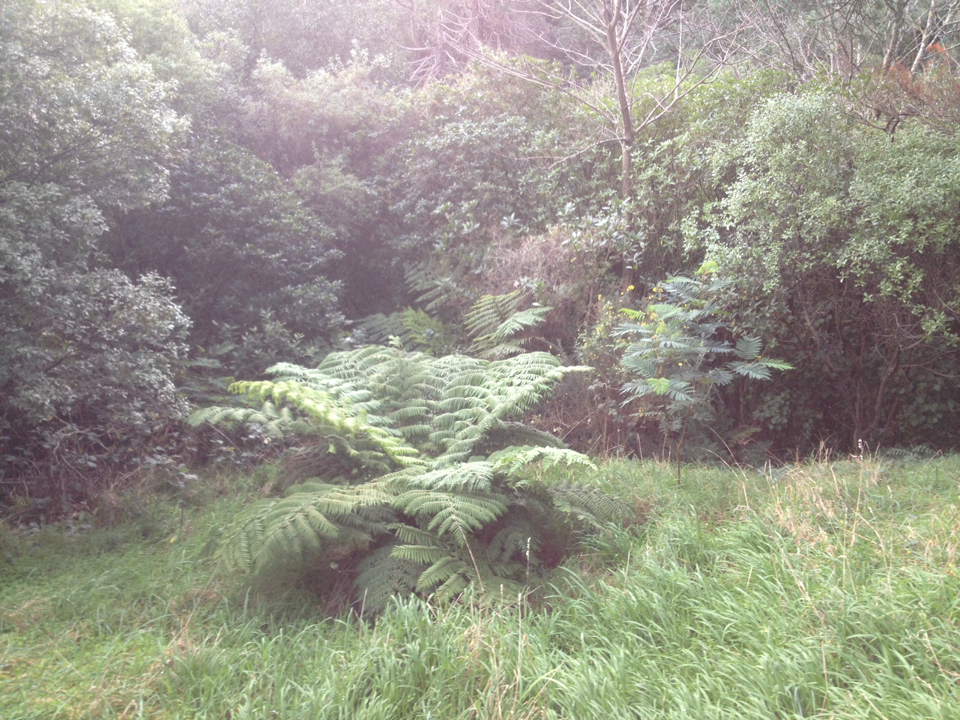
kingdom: Plantae
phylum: Tracheophyta
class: Polypodiopsida
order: Cyatheales
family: Cyatheaceae
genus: Alsophila
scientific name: Alsophila dealbata
